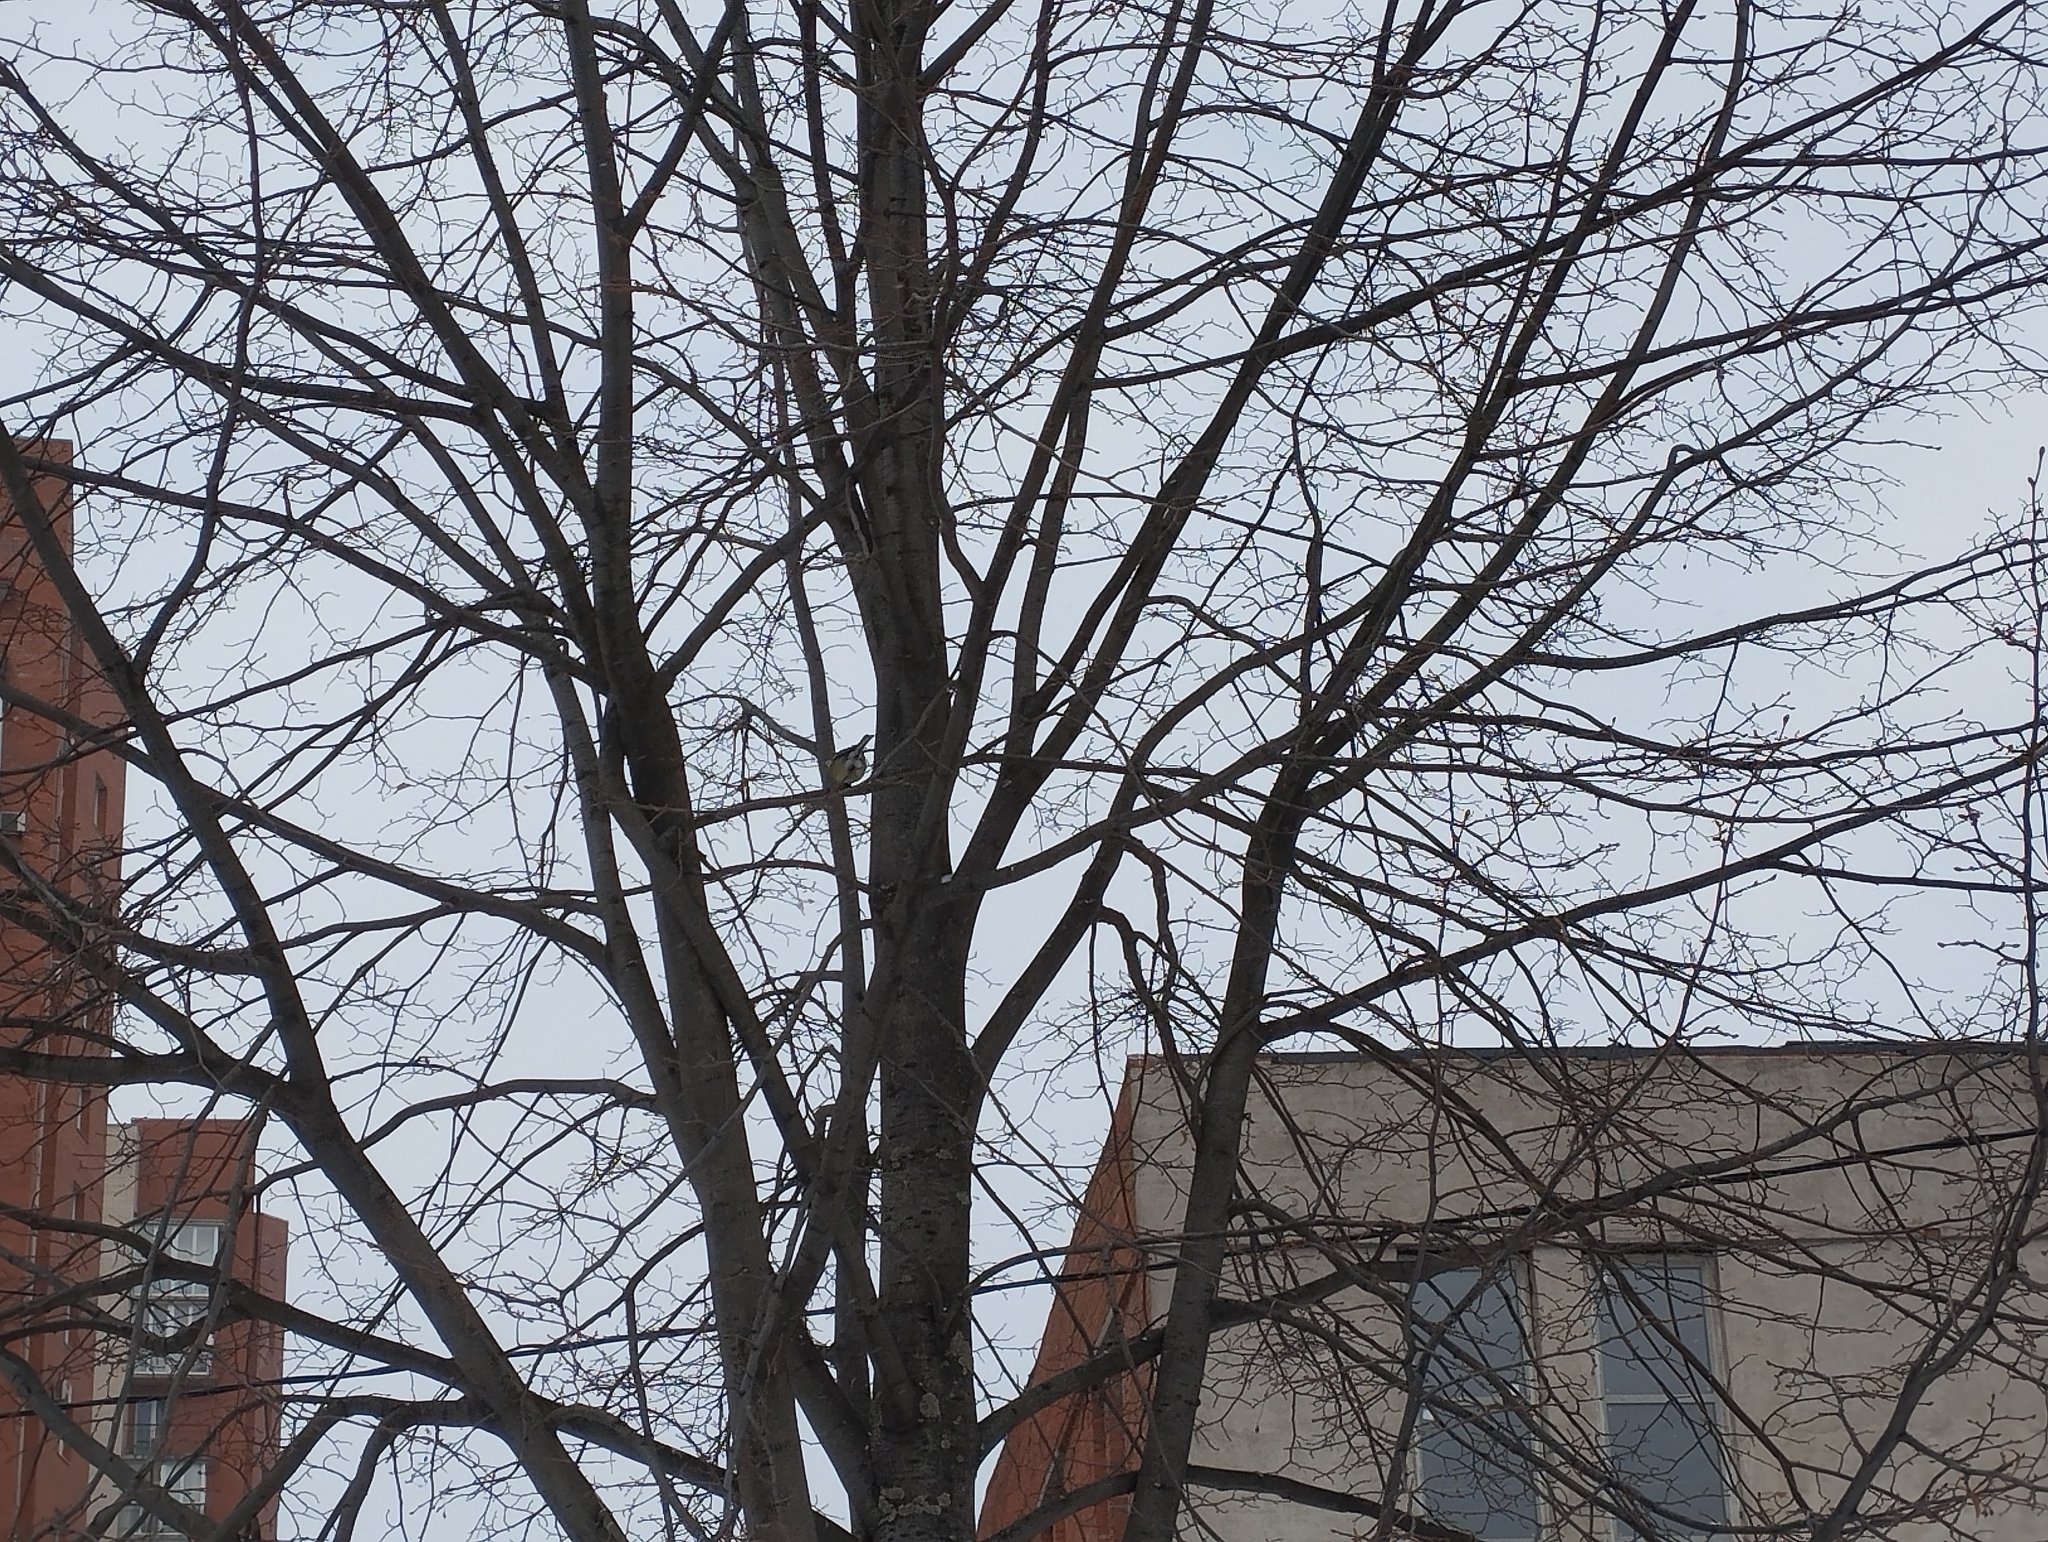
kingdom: Animalia
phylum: Chordata
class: Aves
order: Passeriformes
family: Paridae
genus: Parus
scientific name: Parus major
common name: Great tit
